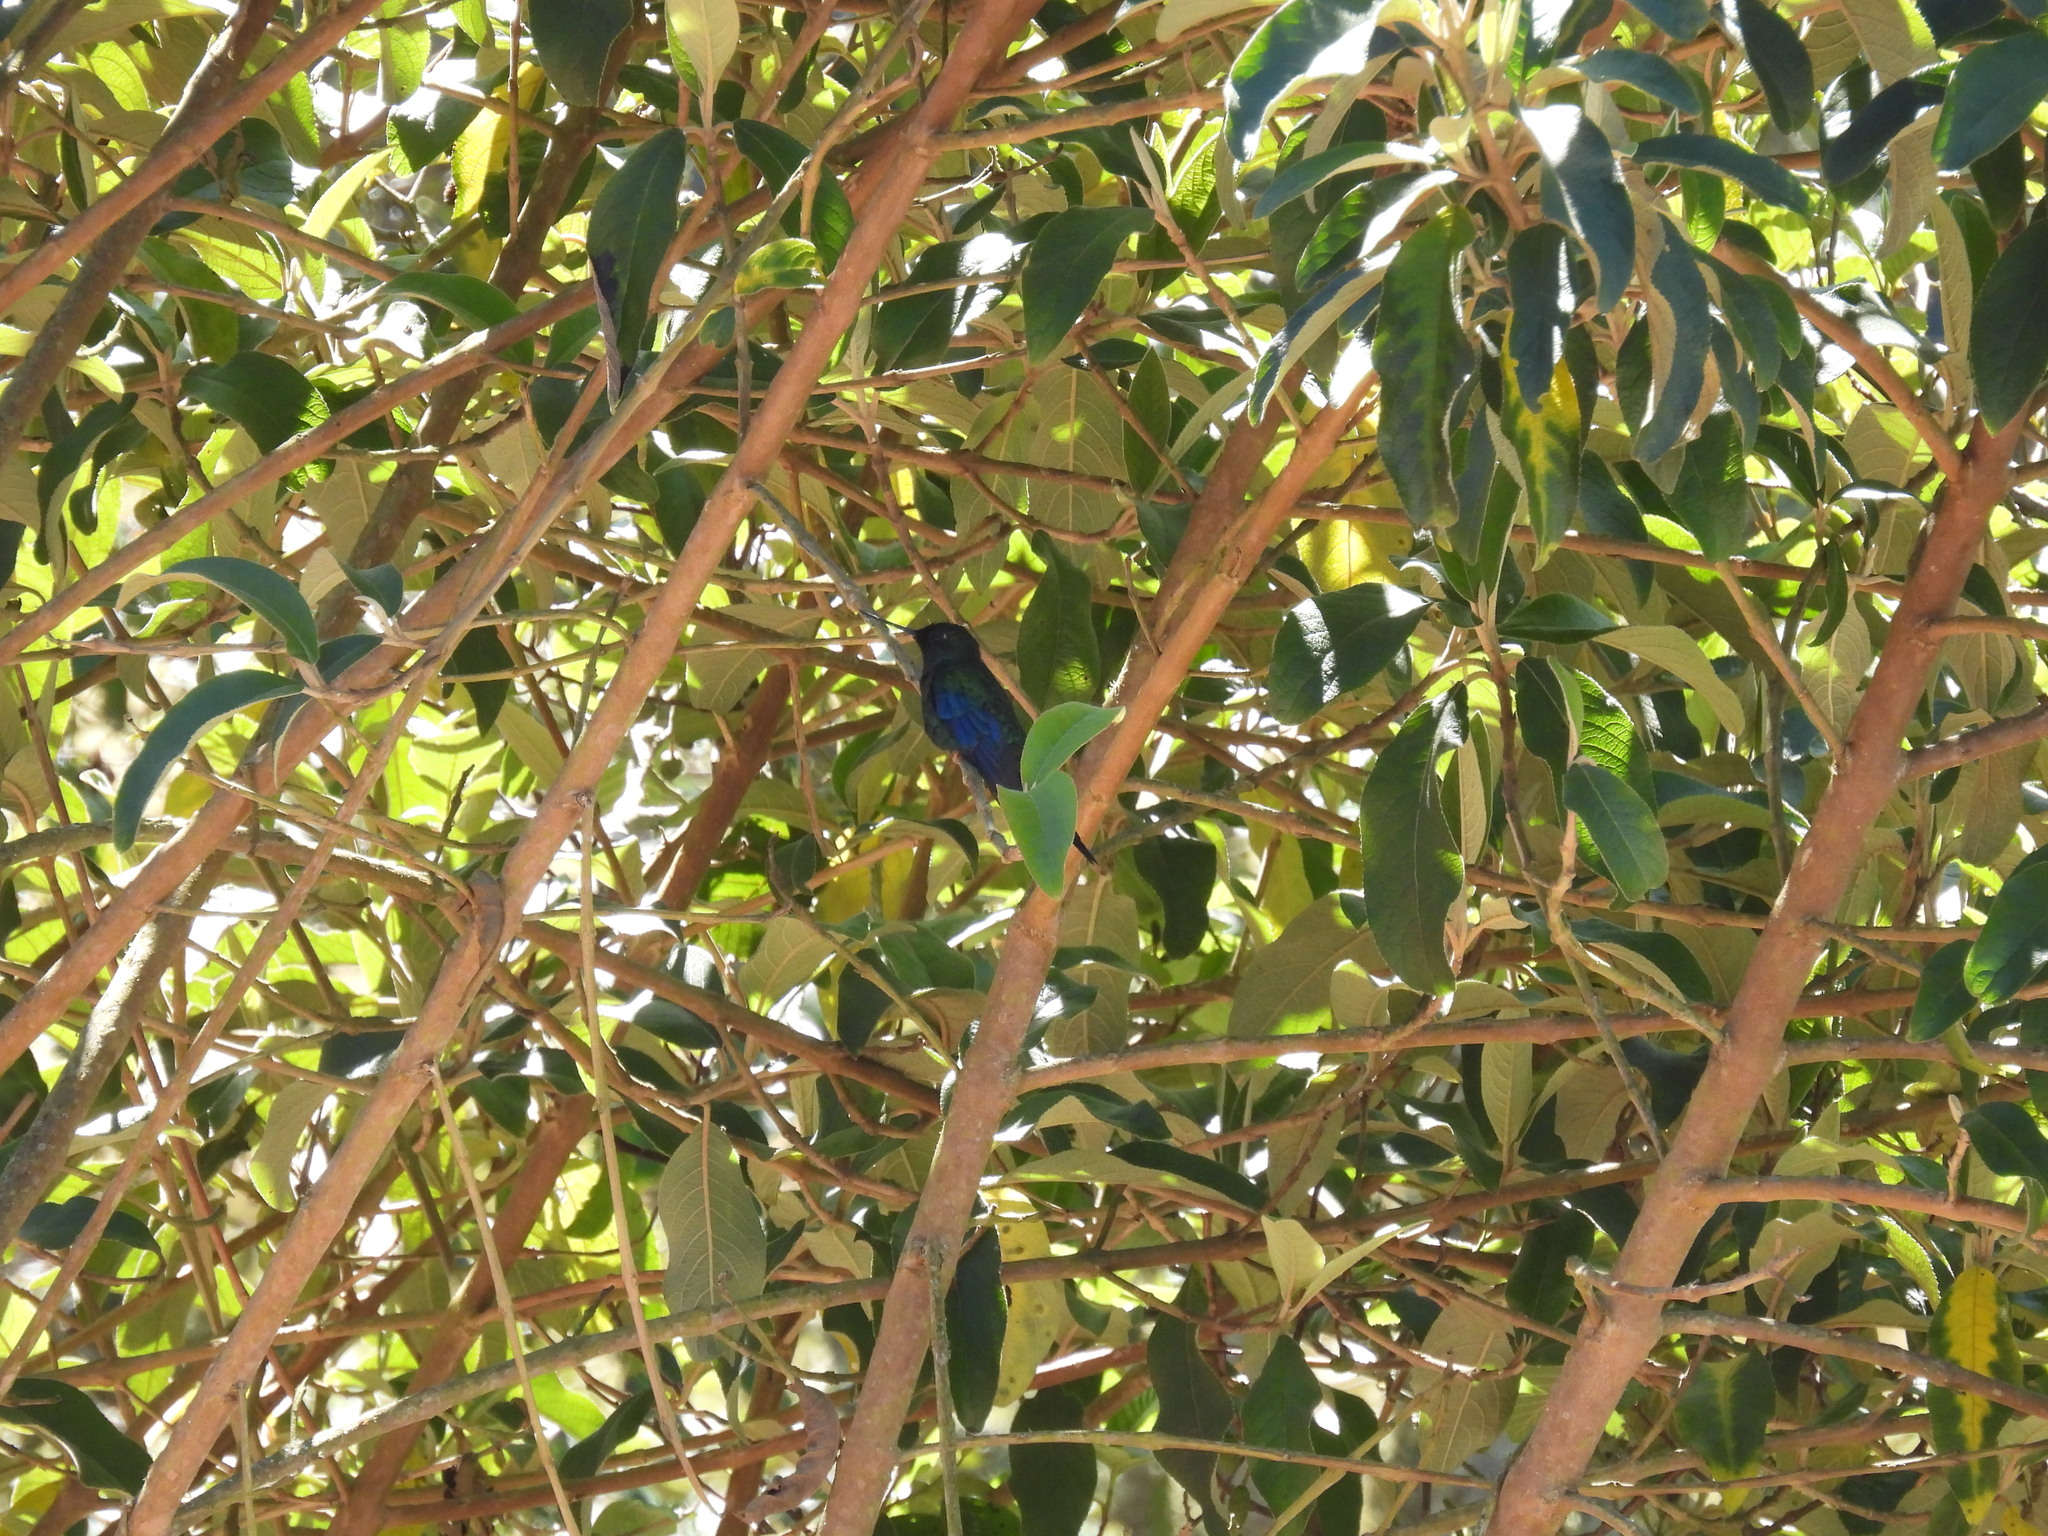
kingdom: Animalia
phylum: Chordata
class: Aves
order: Apodiformes
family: Trochilidae
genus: Pterophanes
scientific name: Pterophanes cyanopterus
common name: Great sapphirewing
